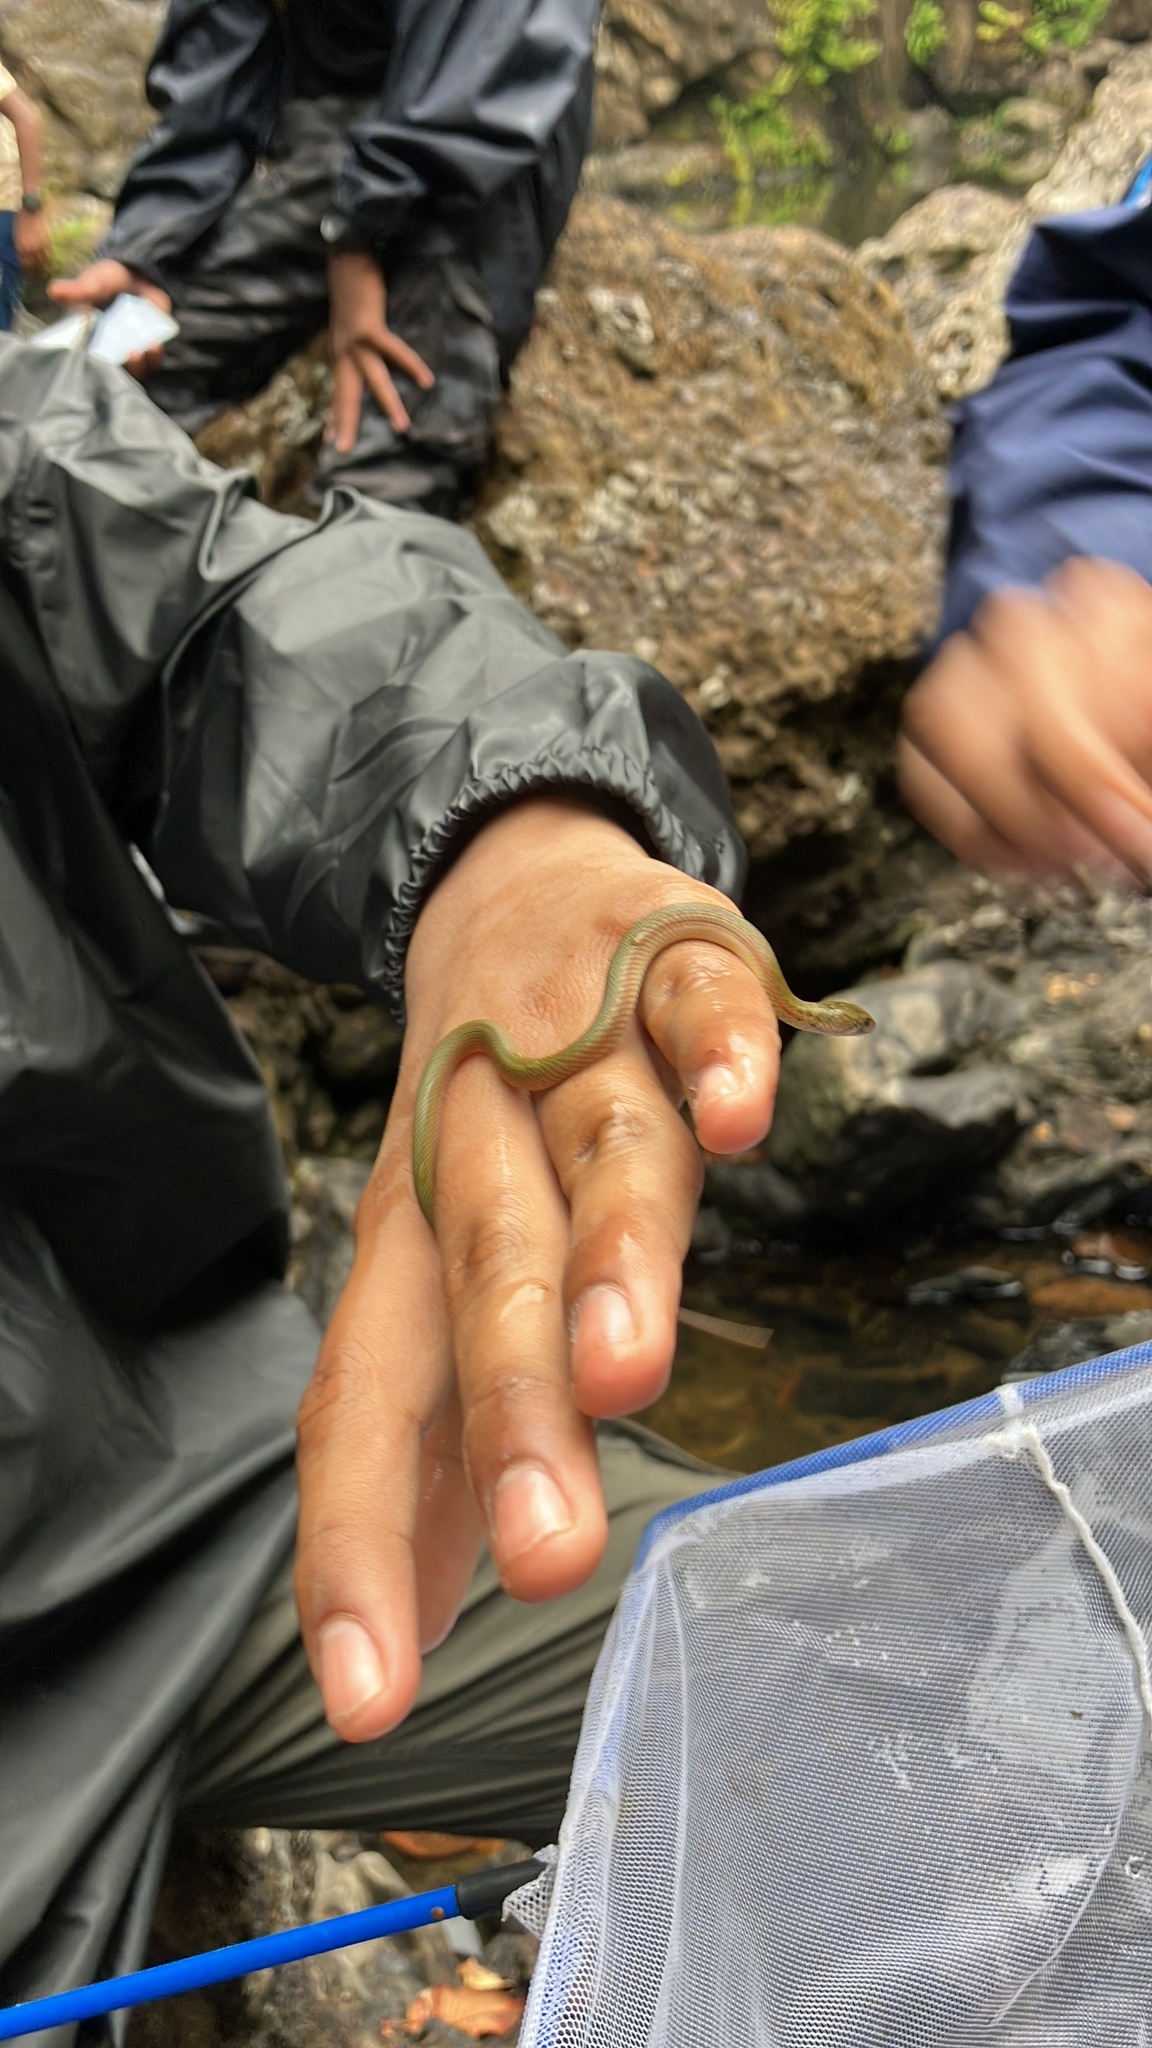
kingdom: Animalia
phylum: Chordata
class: Squamata
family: Colubridae
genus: Fowlea
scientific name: Fowlea piscator
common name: Asiatic water snake
